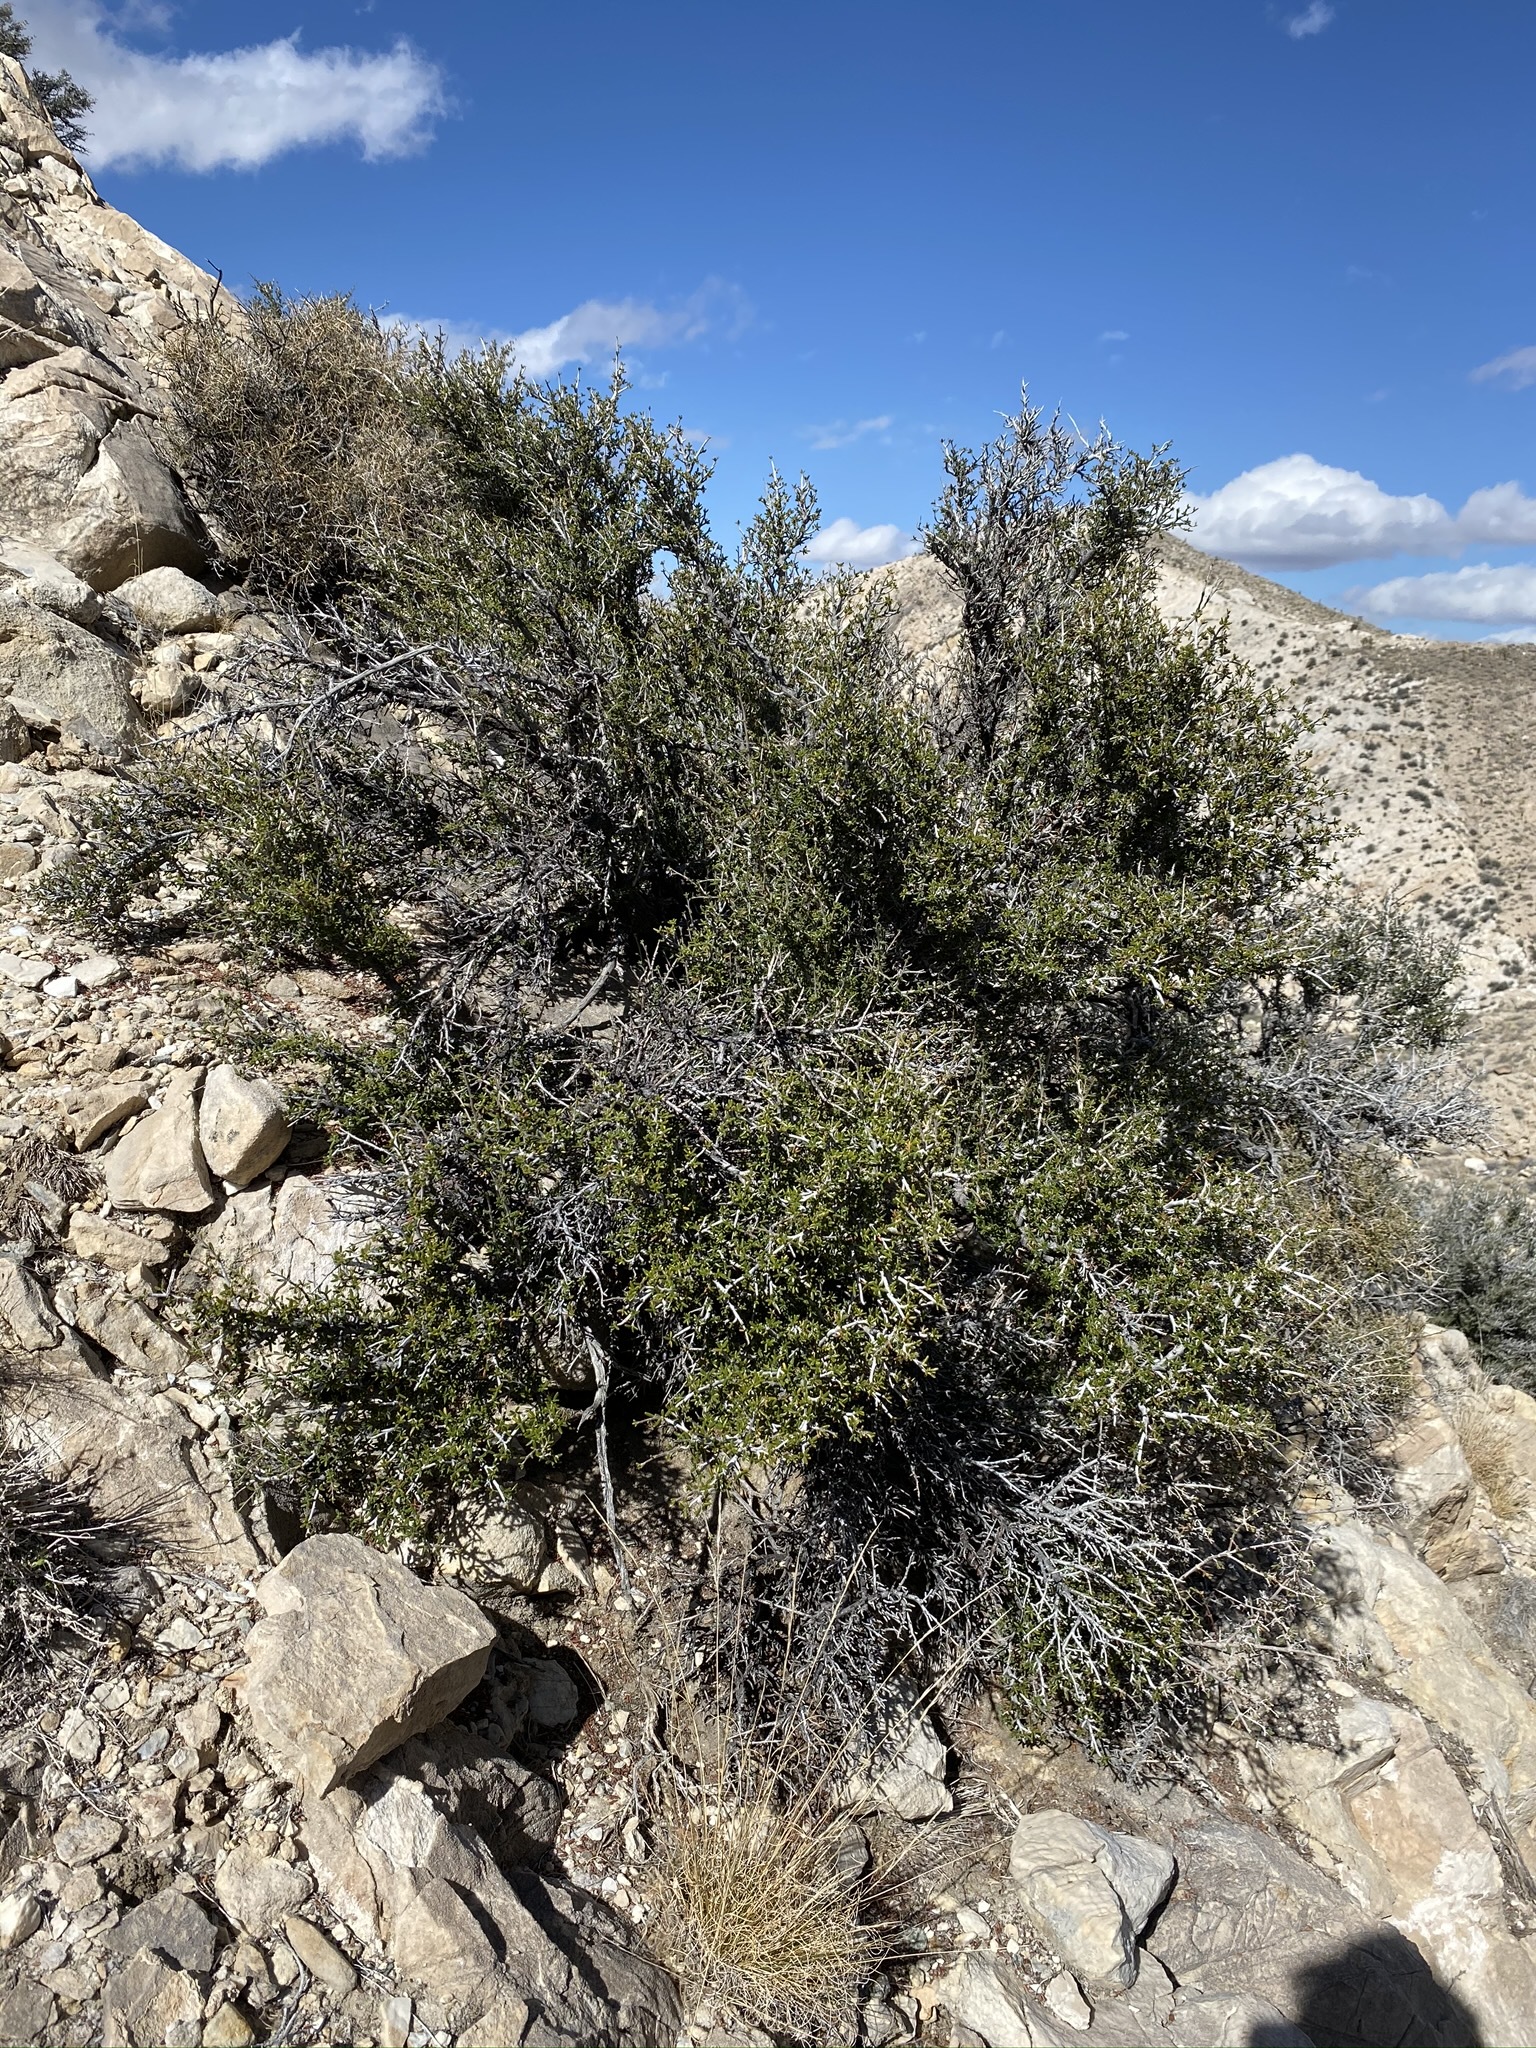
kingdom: Plantae
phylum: Tracheophyta
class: Magnoliopsida
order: Rosales
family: Rosaceae
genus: Cercocarpus
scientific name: Cercocarpus intricatus
